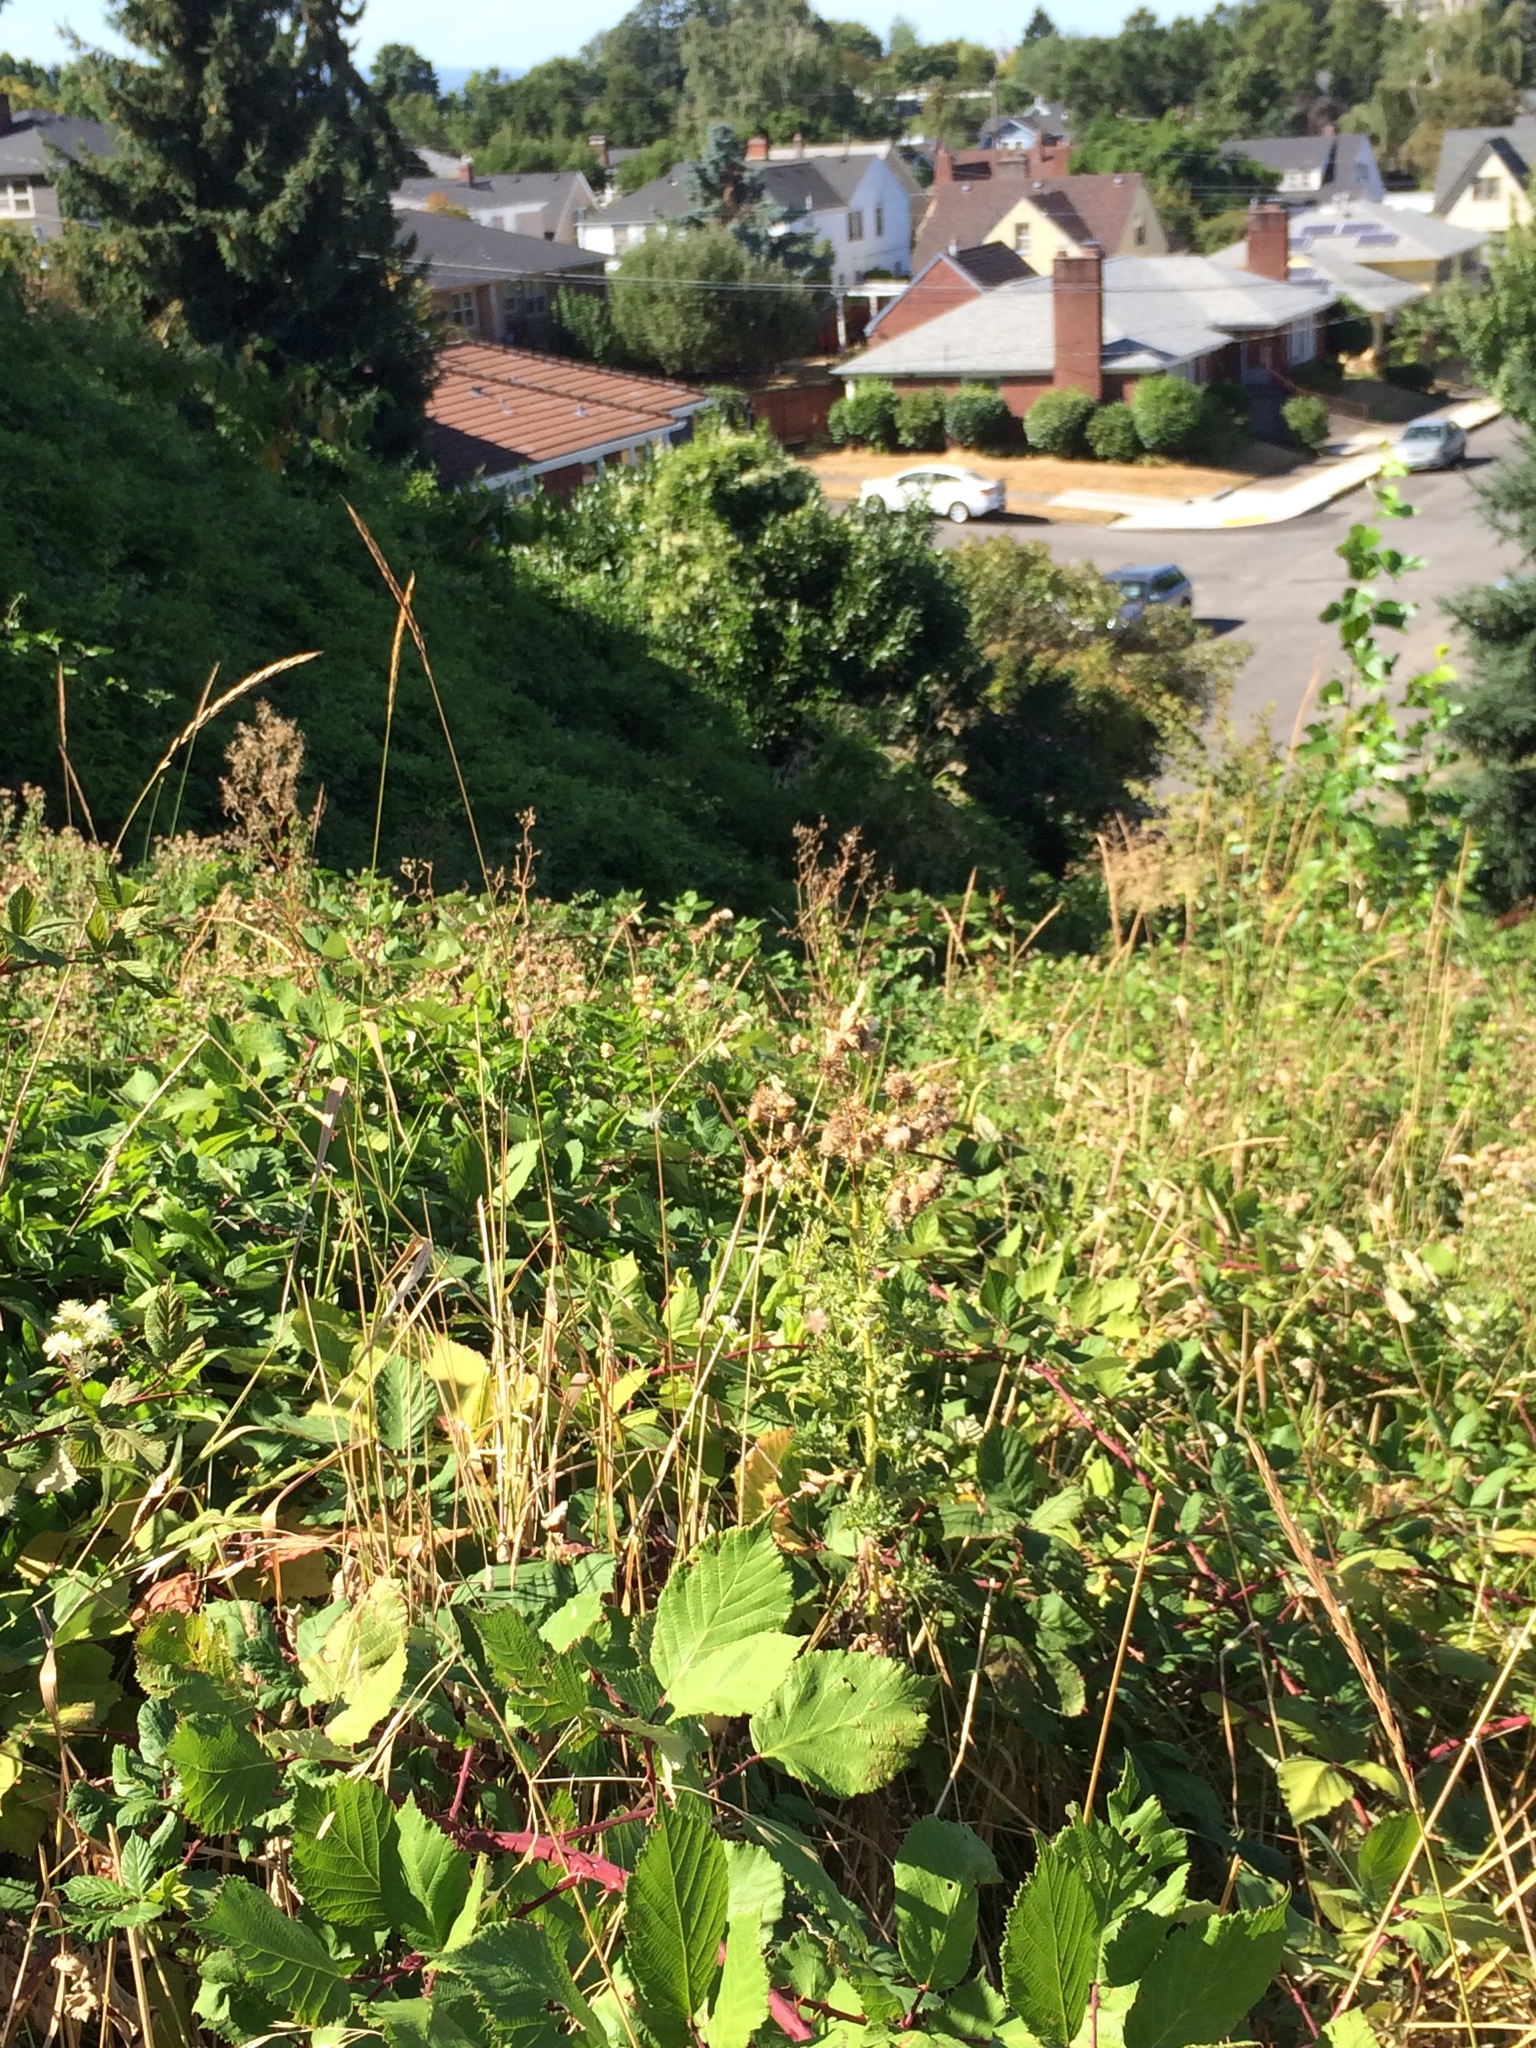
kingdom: Plantae
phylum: Tracheophyta
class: Magnoliopsida
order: Rosales
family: Rosaceae
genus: Rubus
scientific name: Rubus armeniacus
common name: Himalayan blackberry
